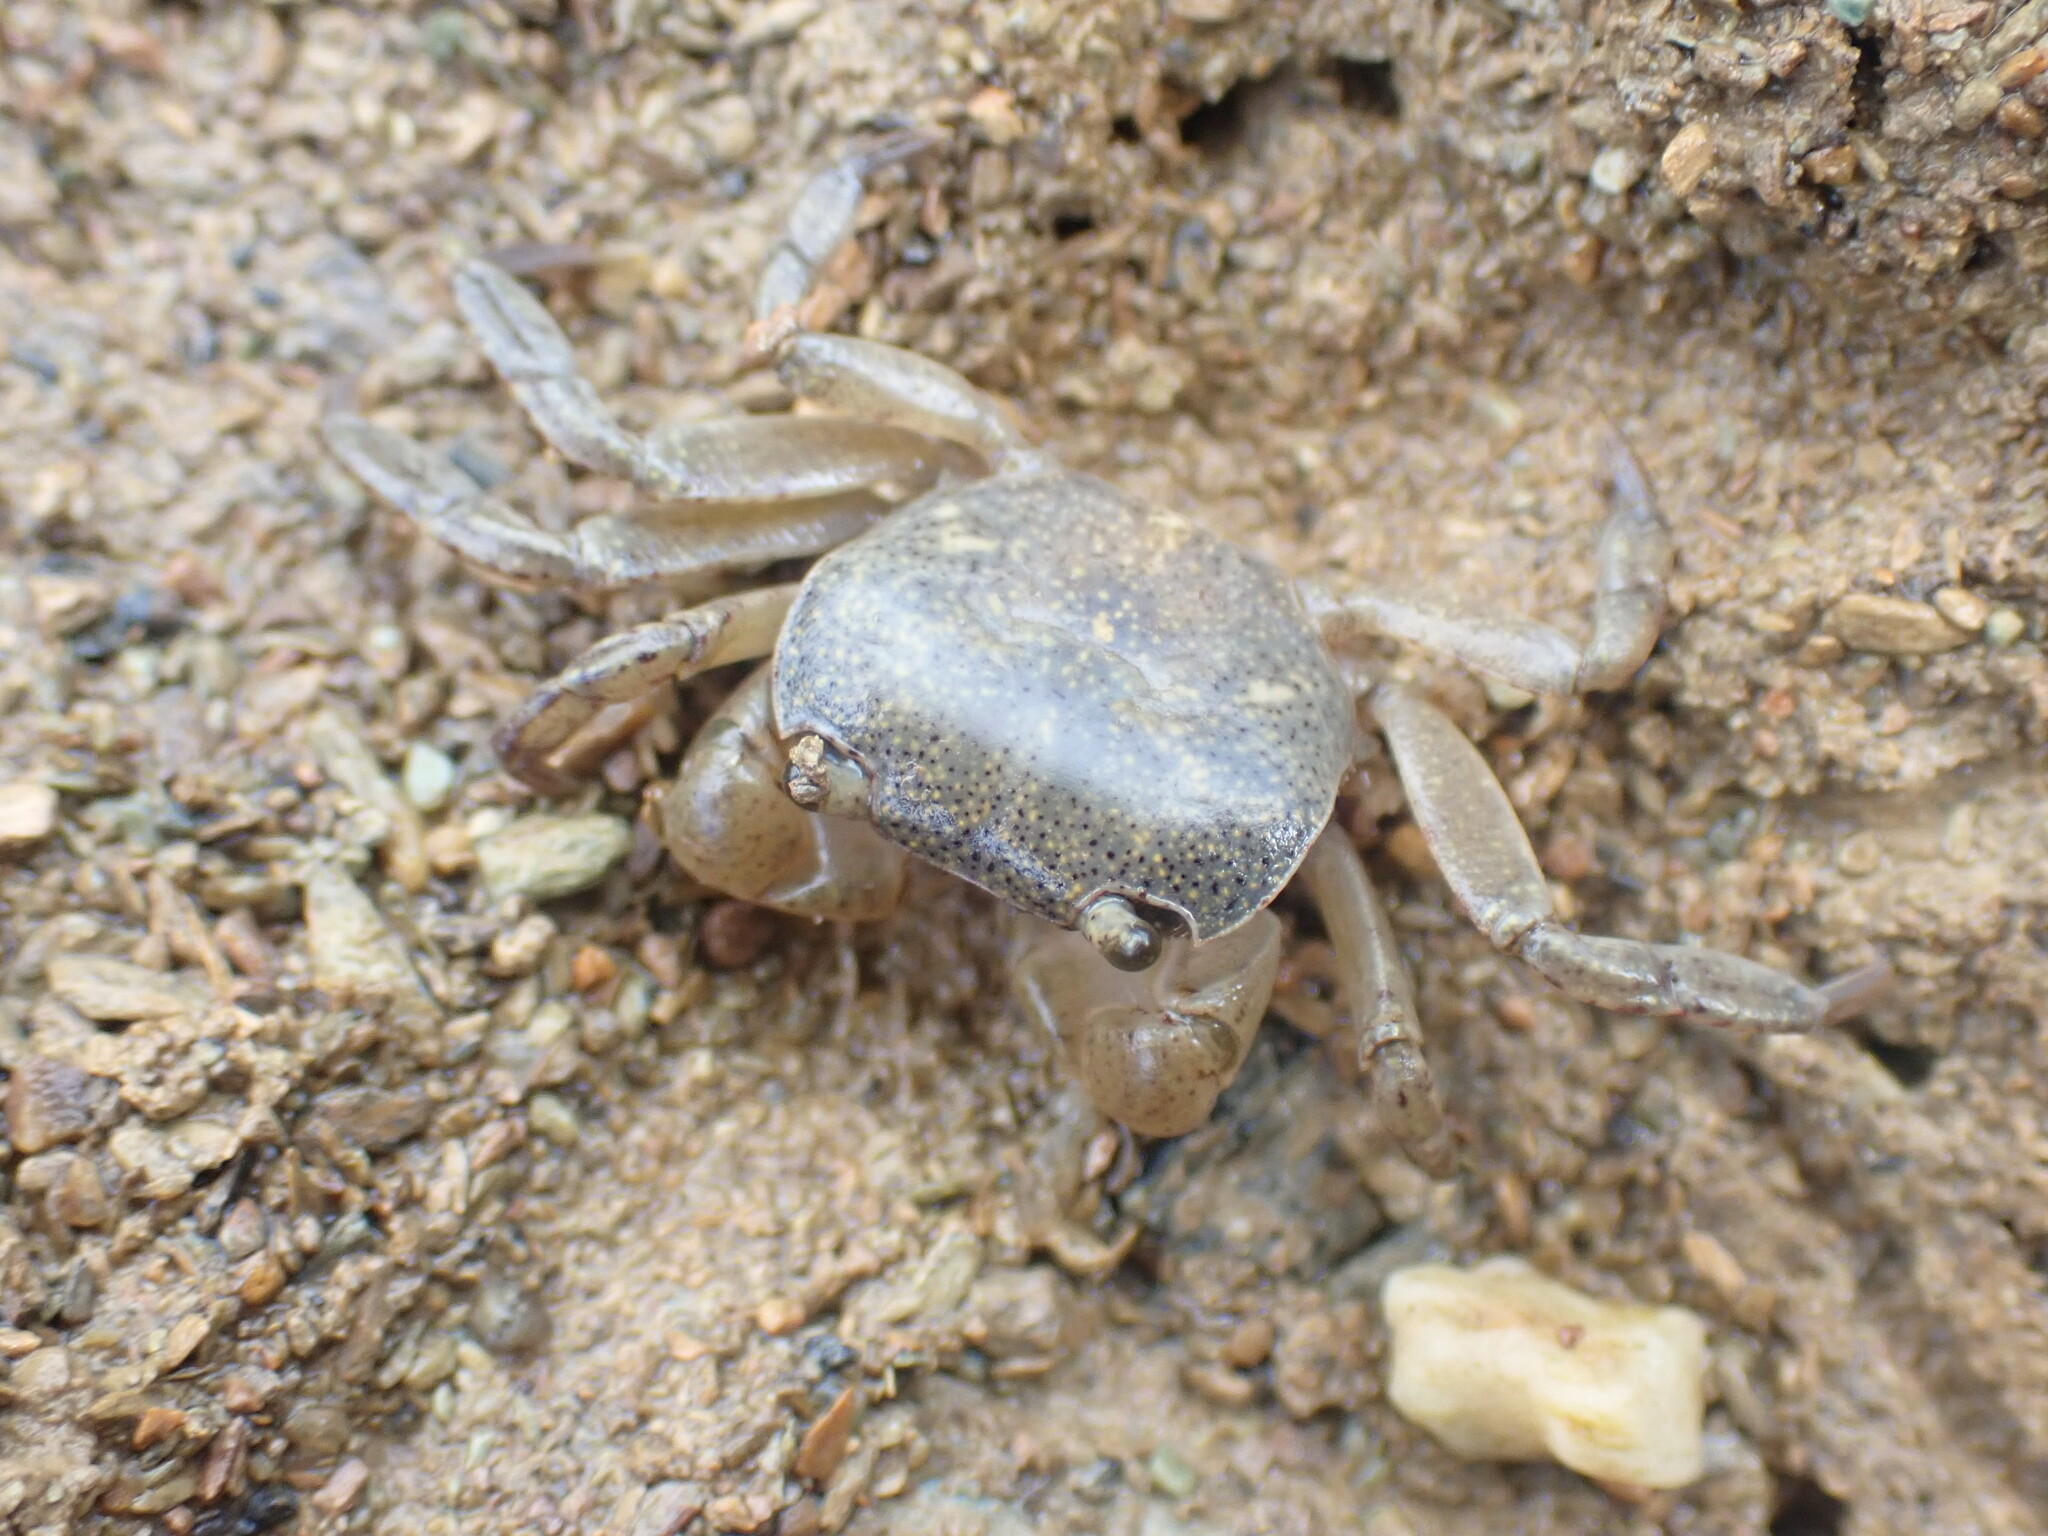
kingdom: Animalia
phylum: Arthropoda
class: Malacostraca
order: Decapoda
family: Varunidae
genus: Cyclograpsus
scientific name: Cyclograpsus lavauxi
